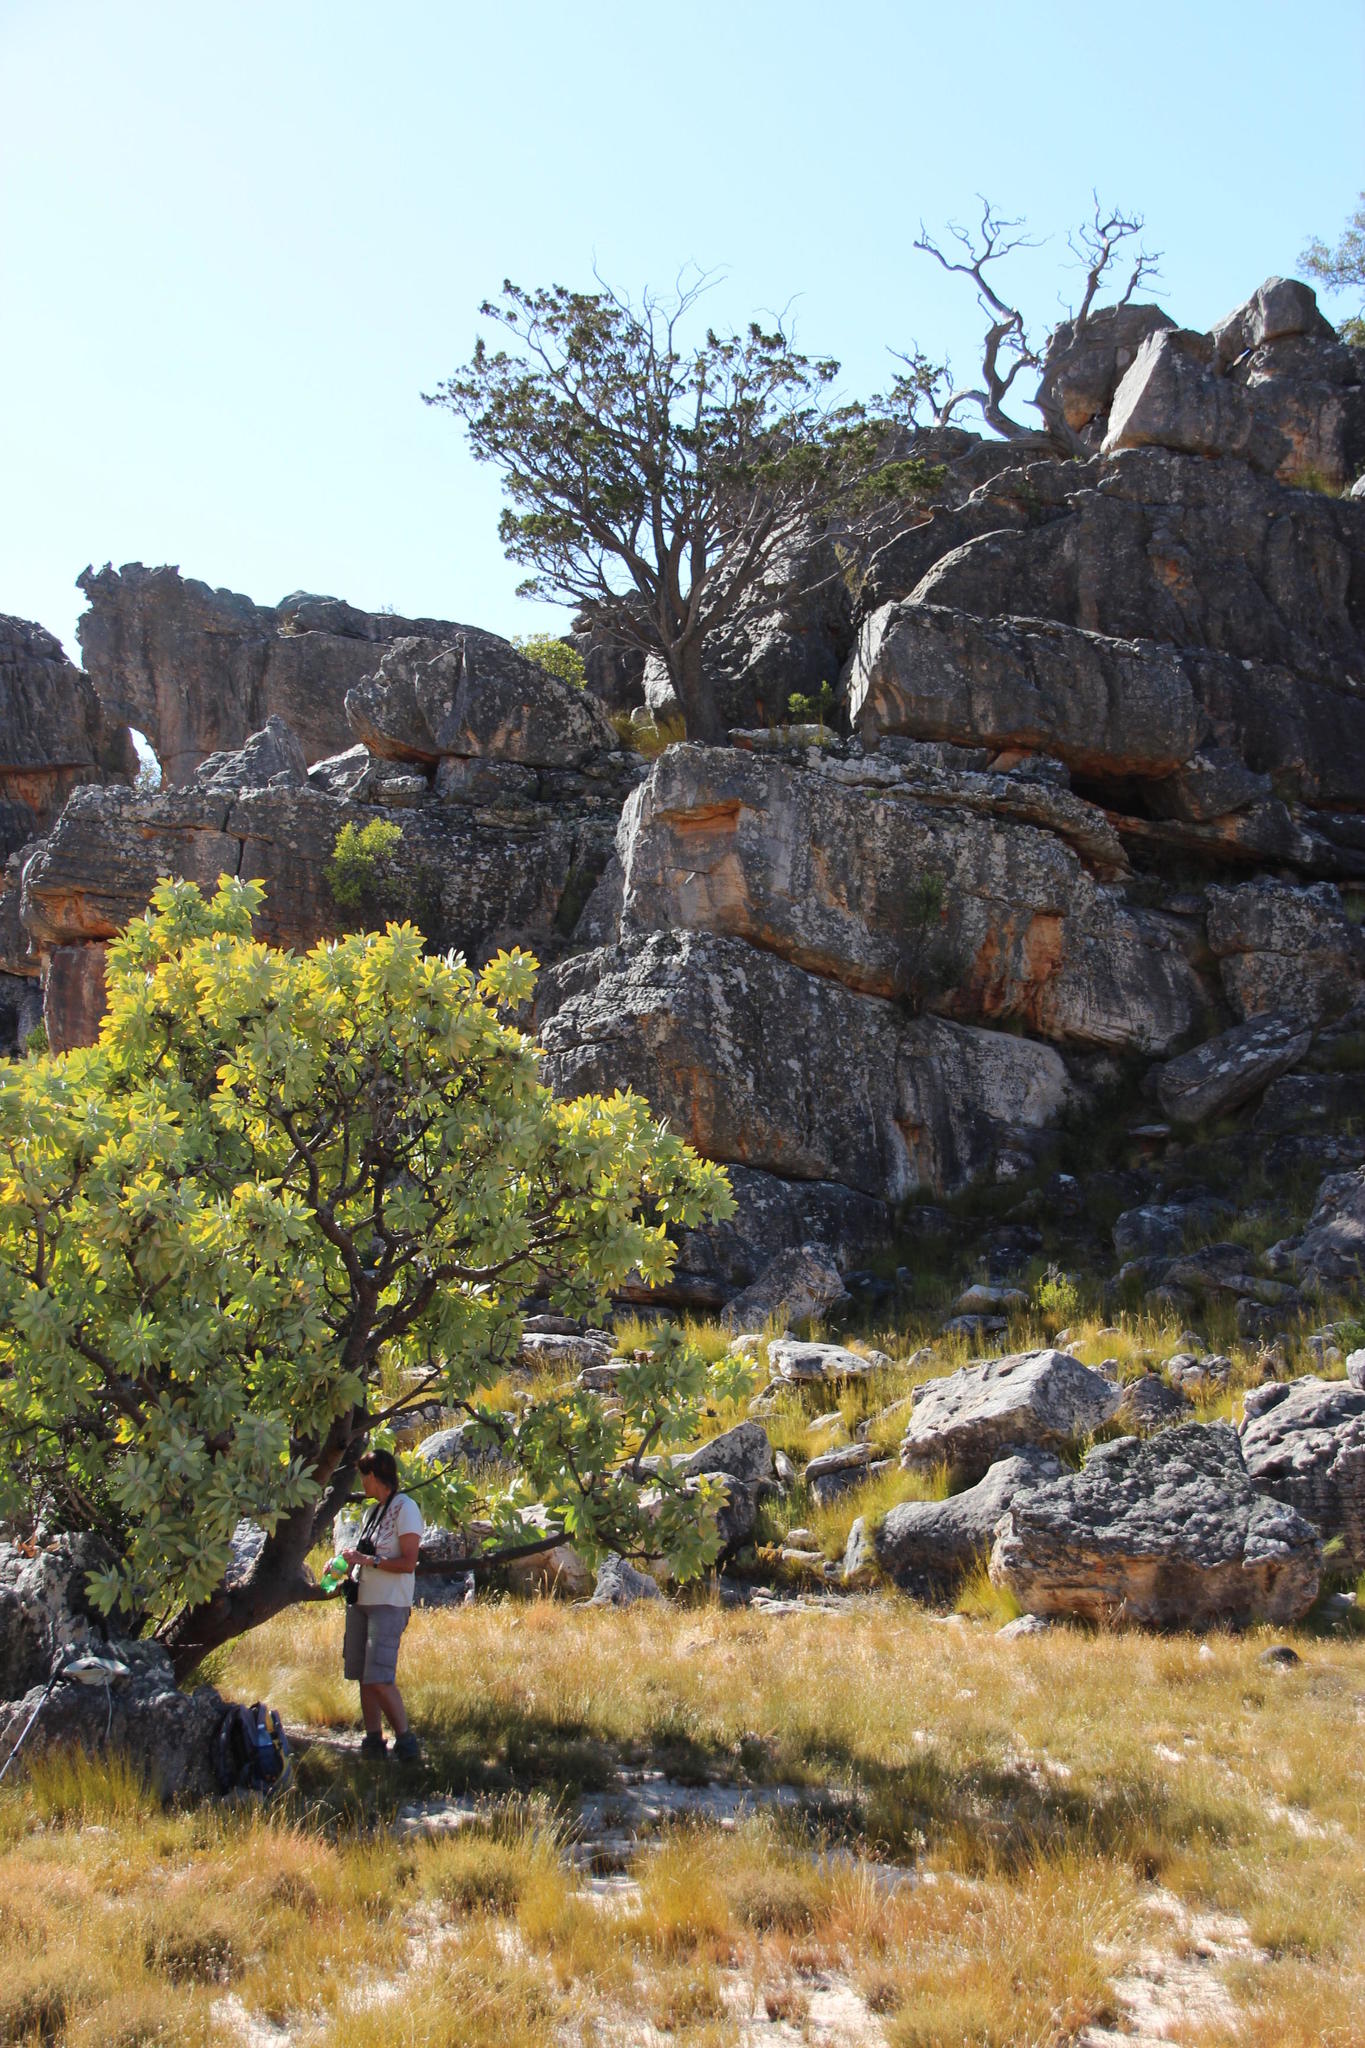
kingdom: Plantae
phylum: Tracheophyta
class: Magnoliopsida
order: Proteales
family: Proteaceae
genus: Protea
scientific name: Protea nitida
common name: Tree protea
